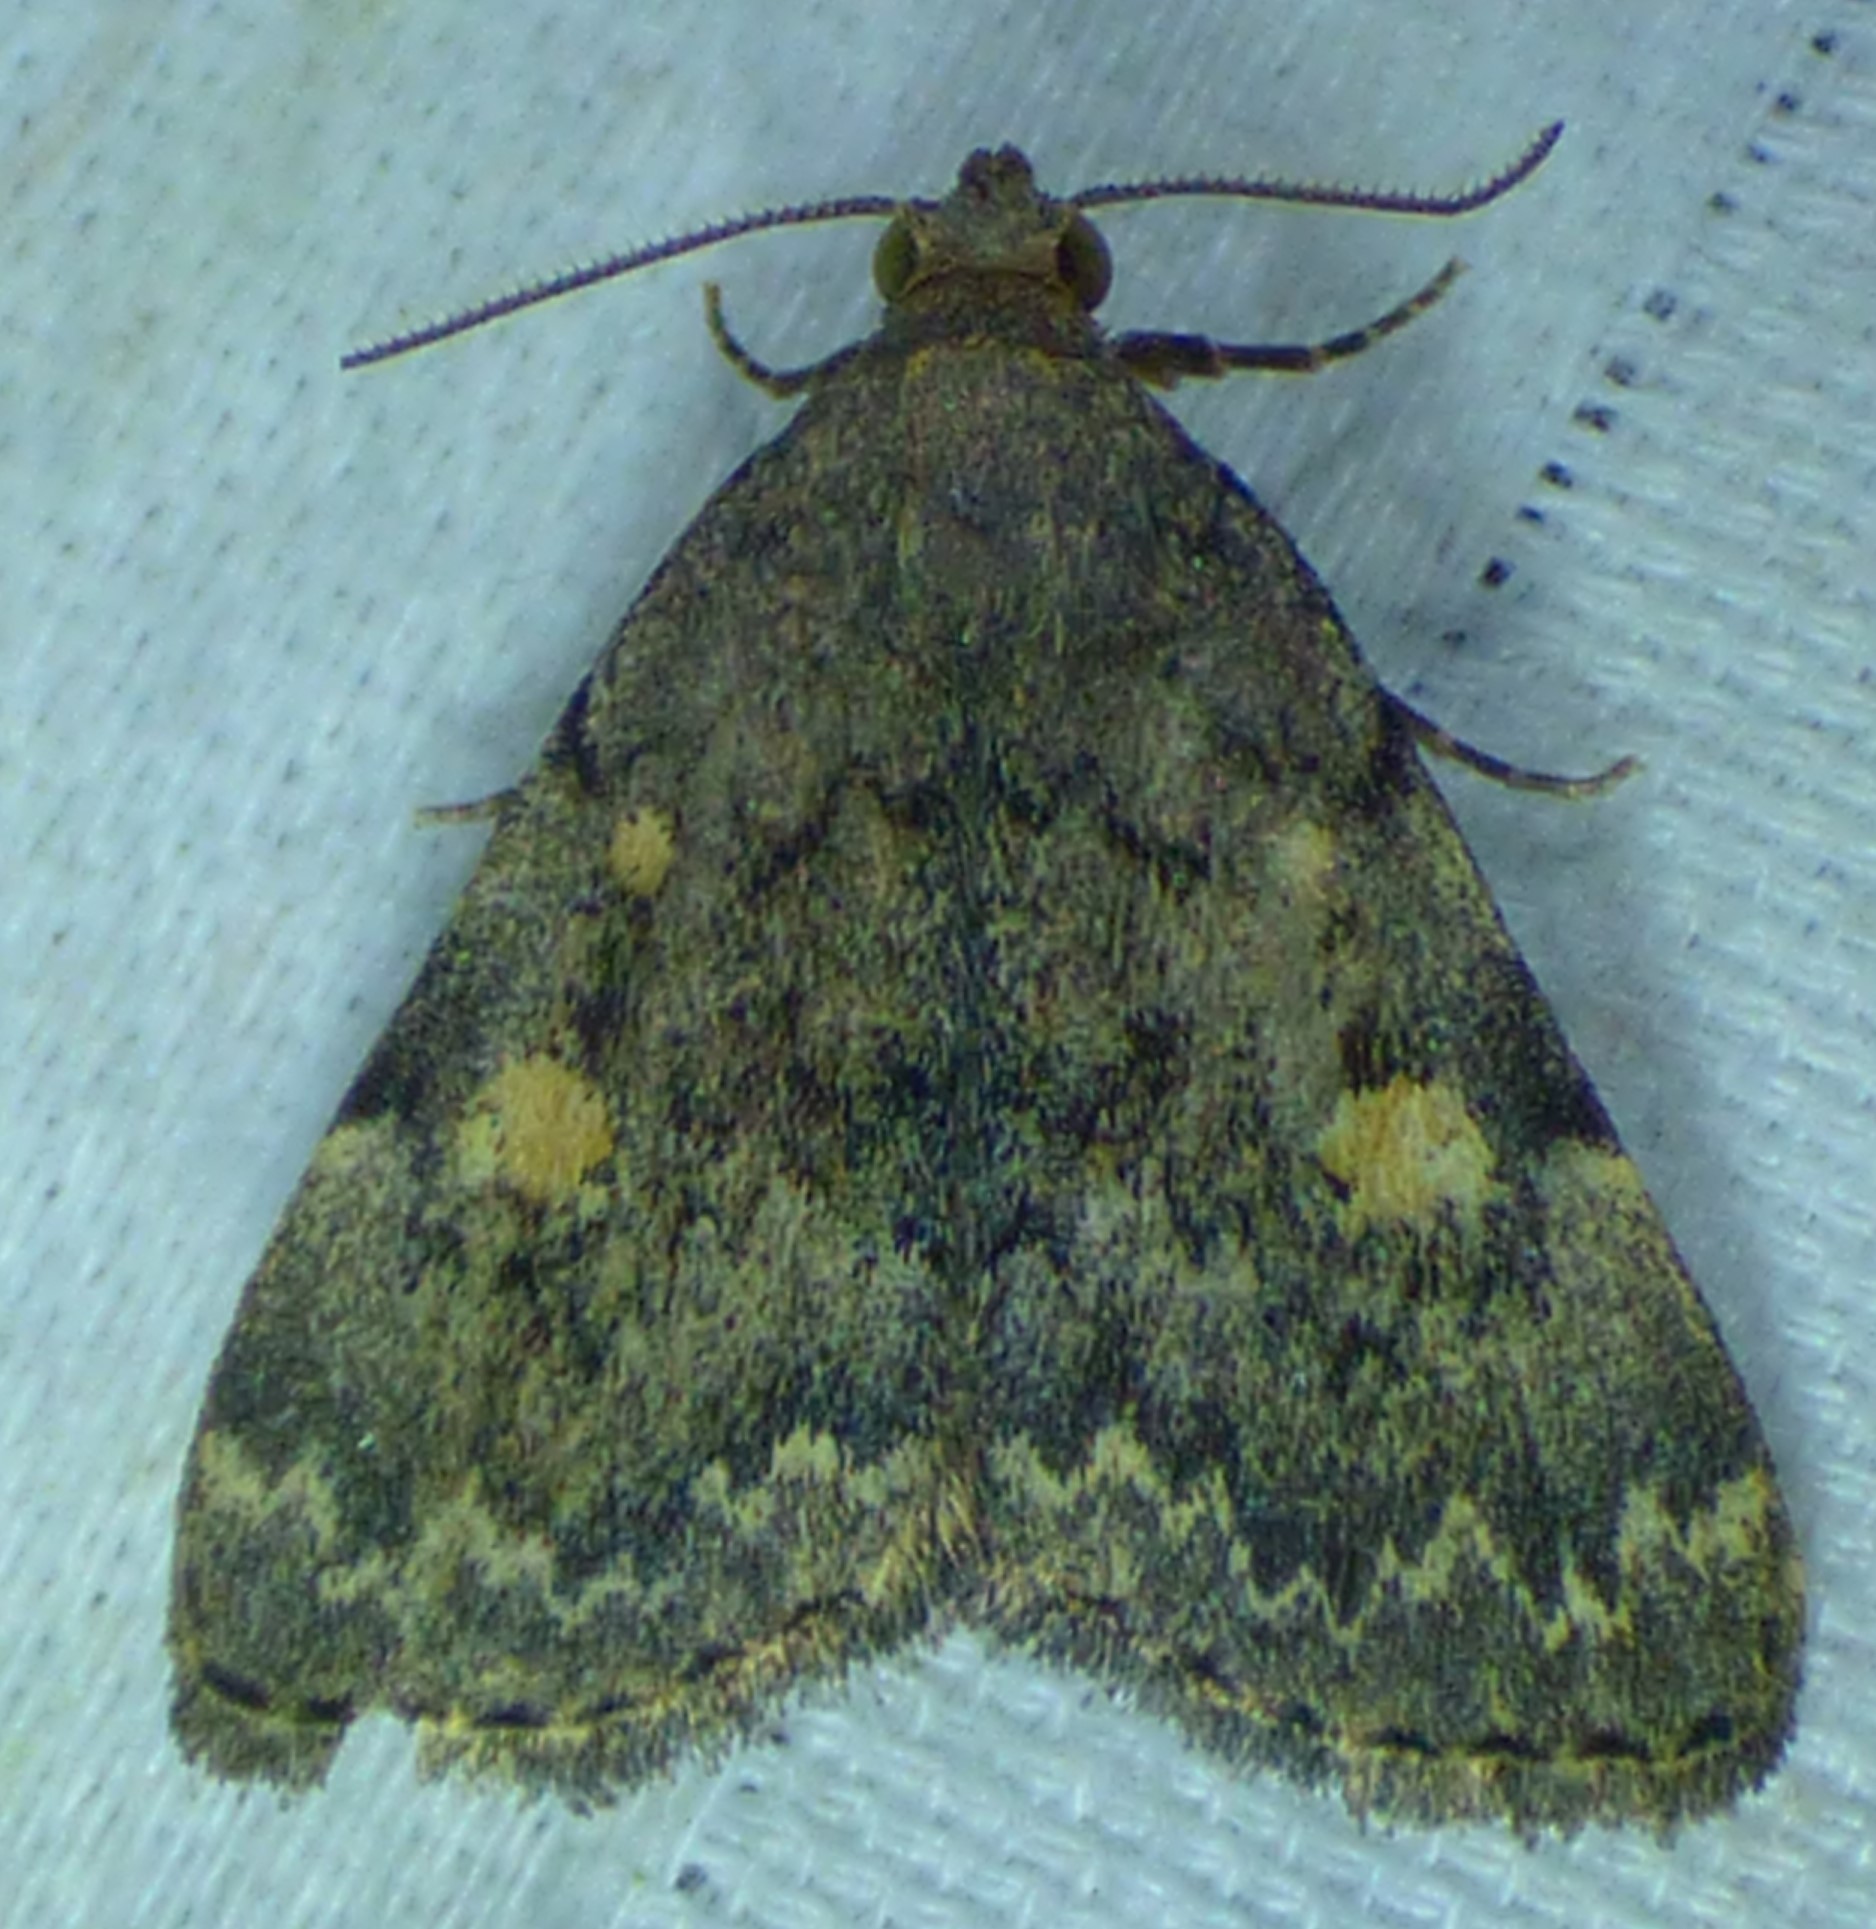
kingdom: Animalia
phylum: Arthropoda
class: Insecta
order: Lepidoptera
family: Erebidae
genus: Idia
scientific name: Idia aemula
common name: Common idia moth
